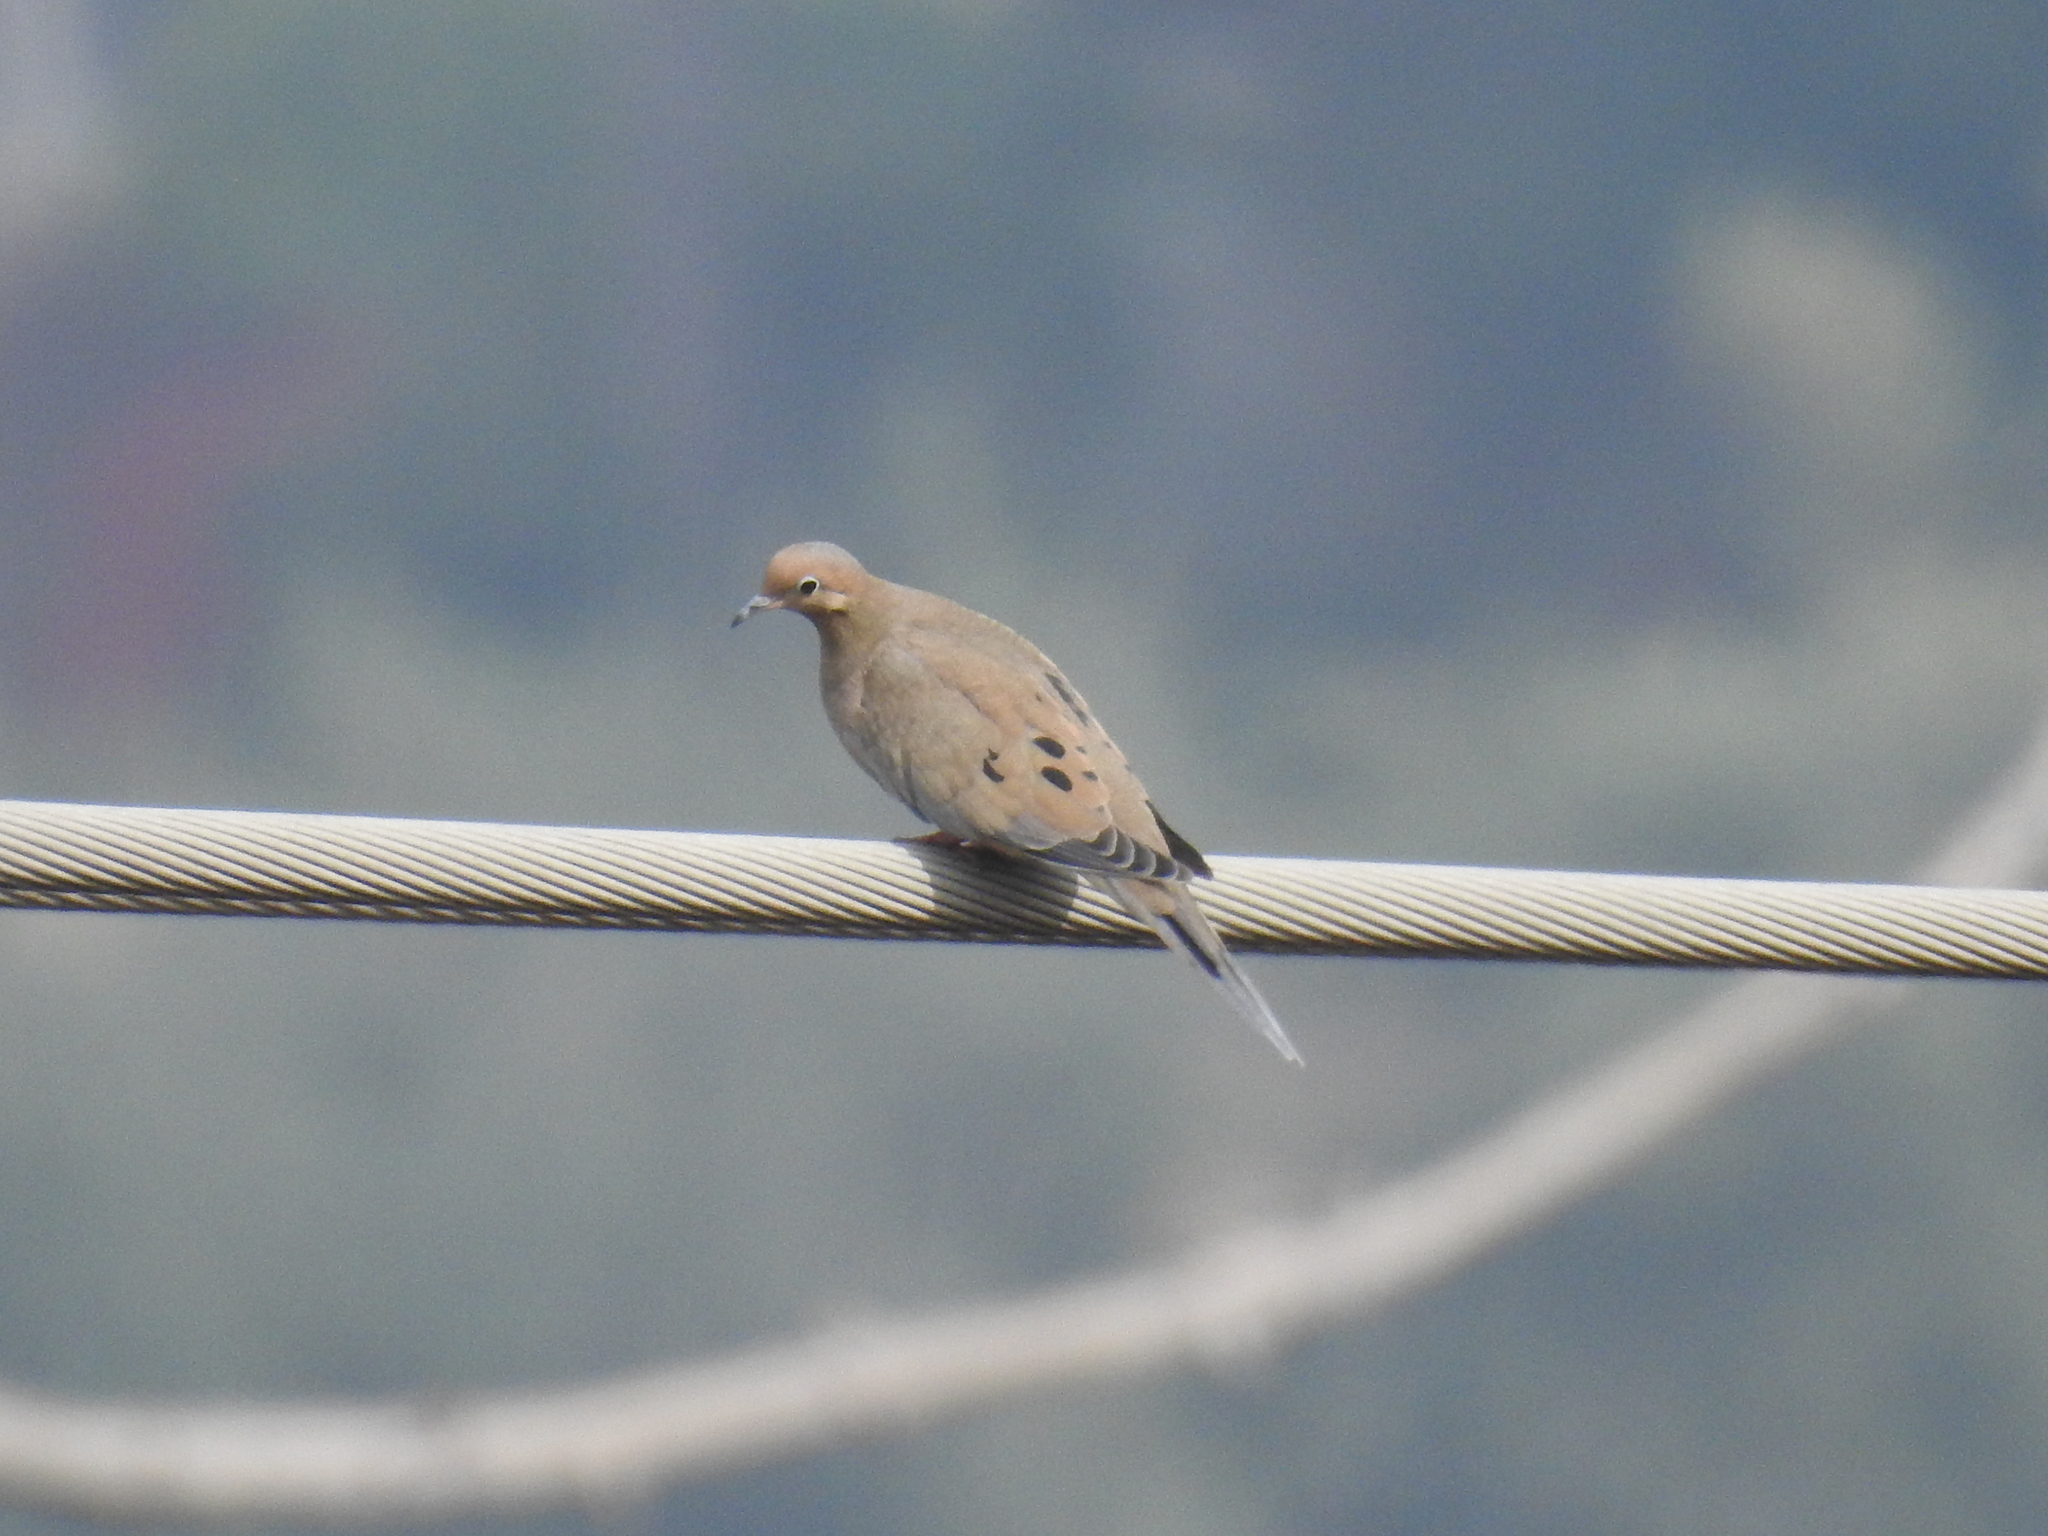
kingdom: Animalia
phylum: Chordata
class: Aves
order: Columbiformes
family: Columbidae
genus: Zenaida
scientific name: Zenaida macroura
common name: Mourning dove
